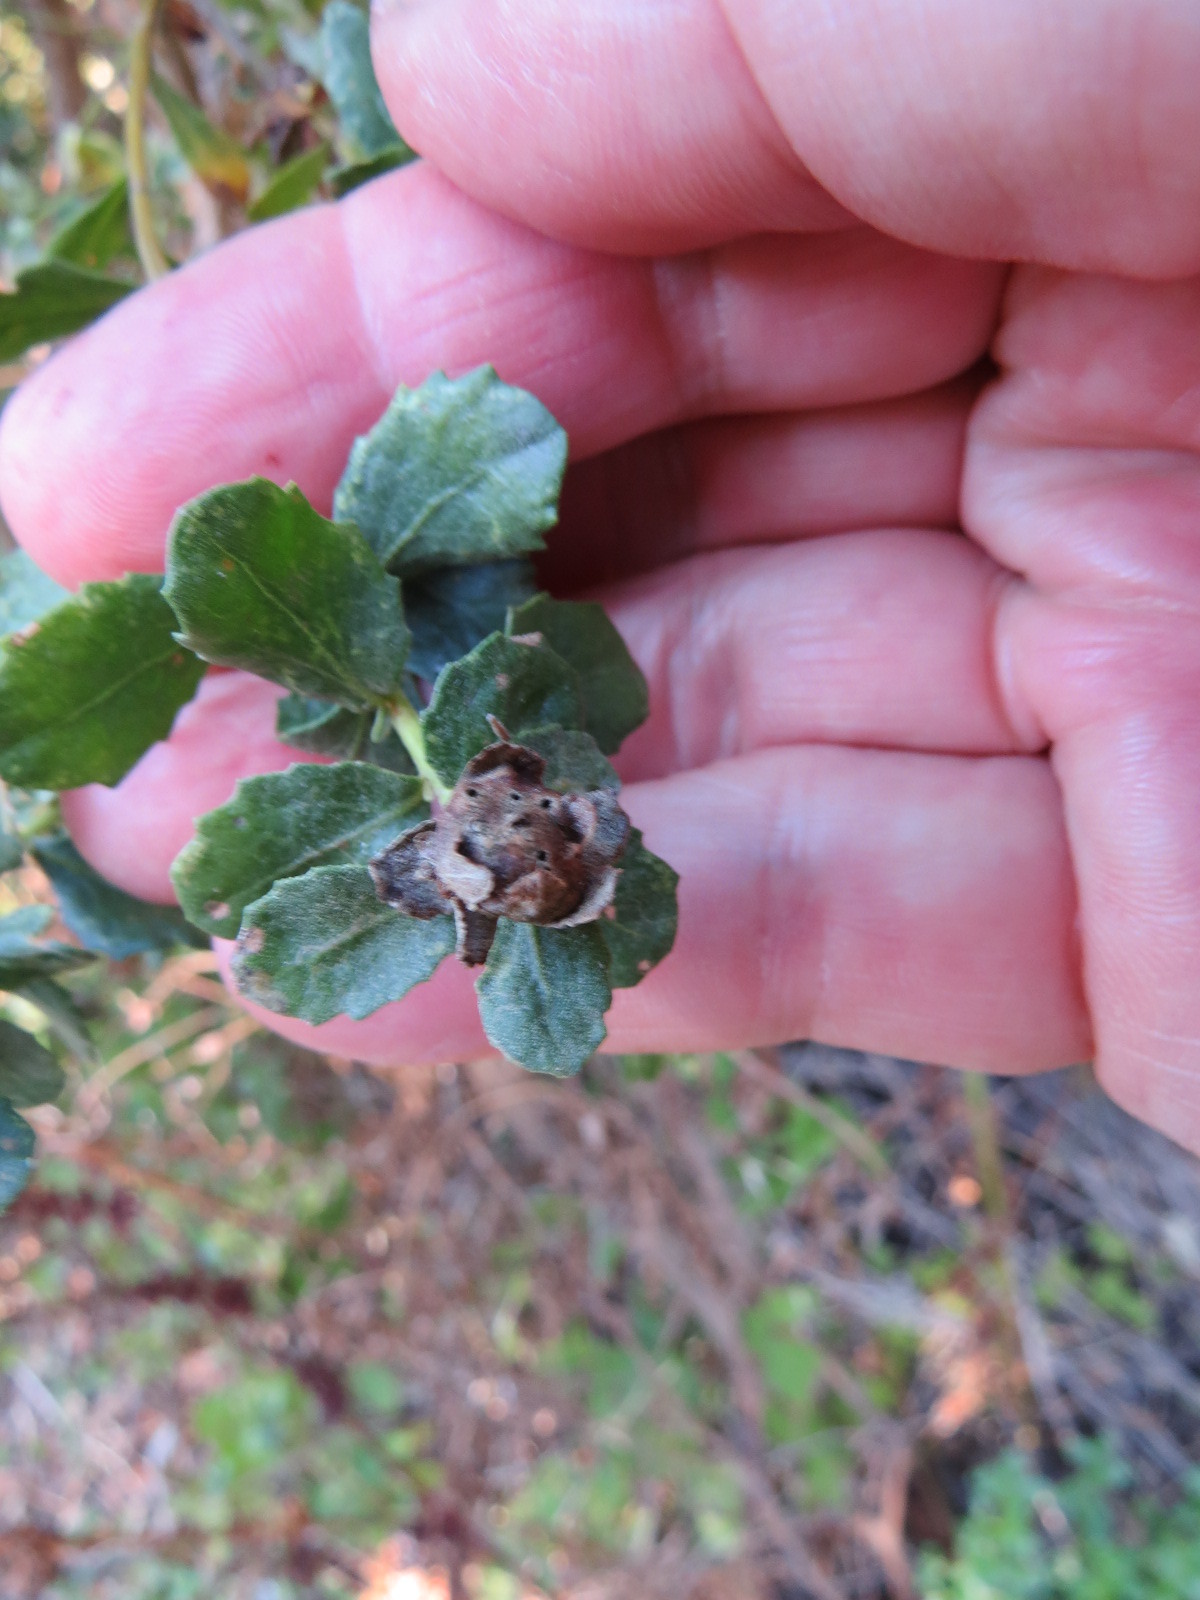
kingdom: Animalia
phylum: Arthropoda
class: Insecta
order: Diptera
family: Cecidomyiidae
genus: Rhopalomyia
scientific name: Rhopalomyia californica
